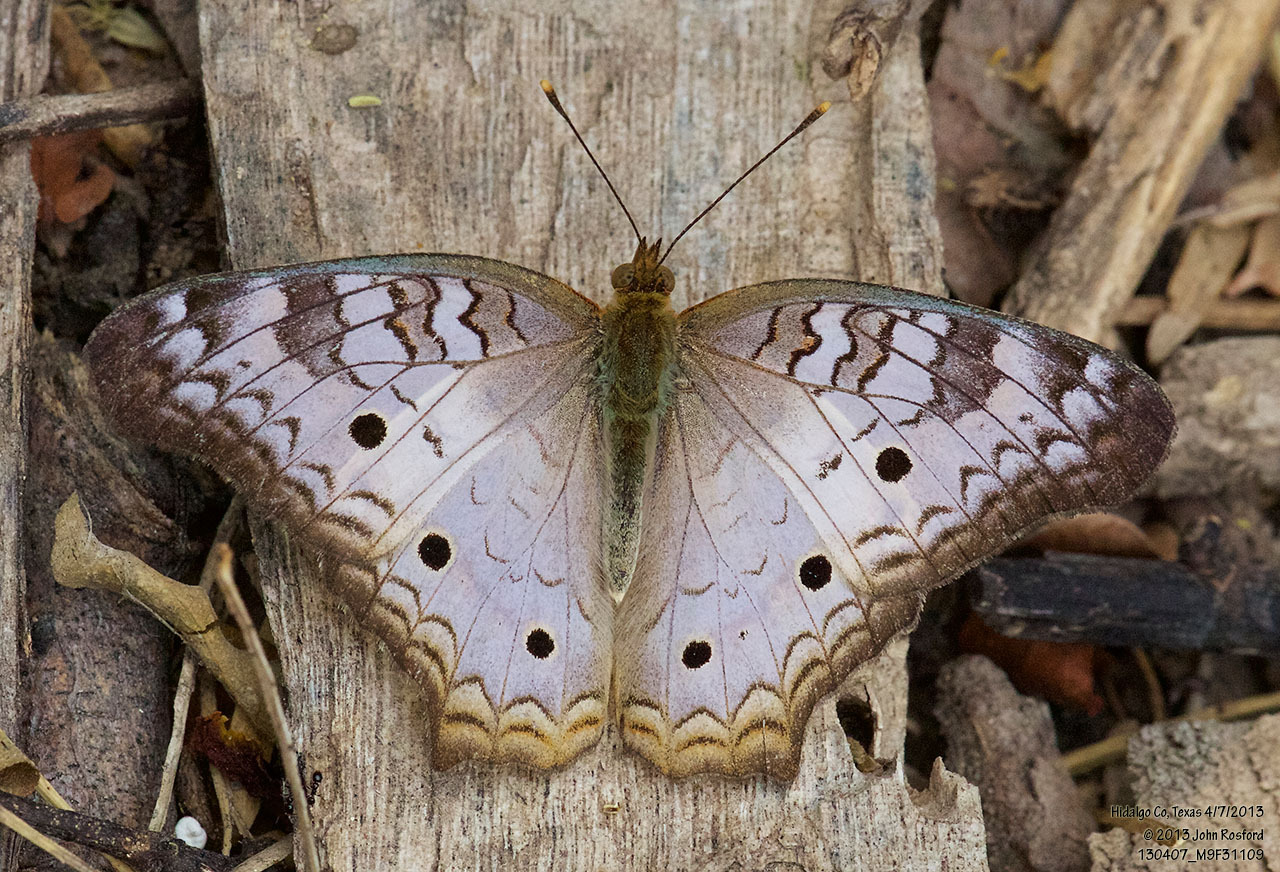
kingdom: Animalia
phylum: Arthropoda
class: Insecta
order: Lepidoptera
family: Nymphalidae
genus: Anartia
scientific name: Anartia jatrophae
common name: White peacock
